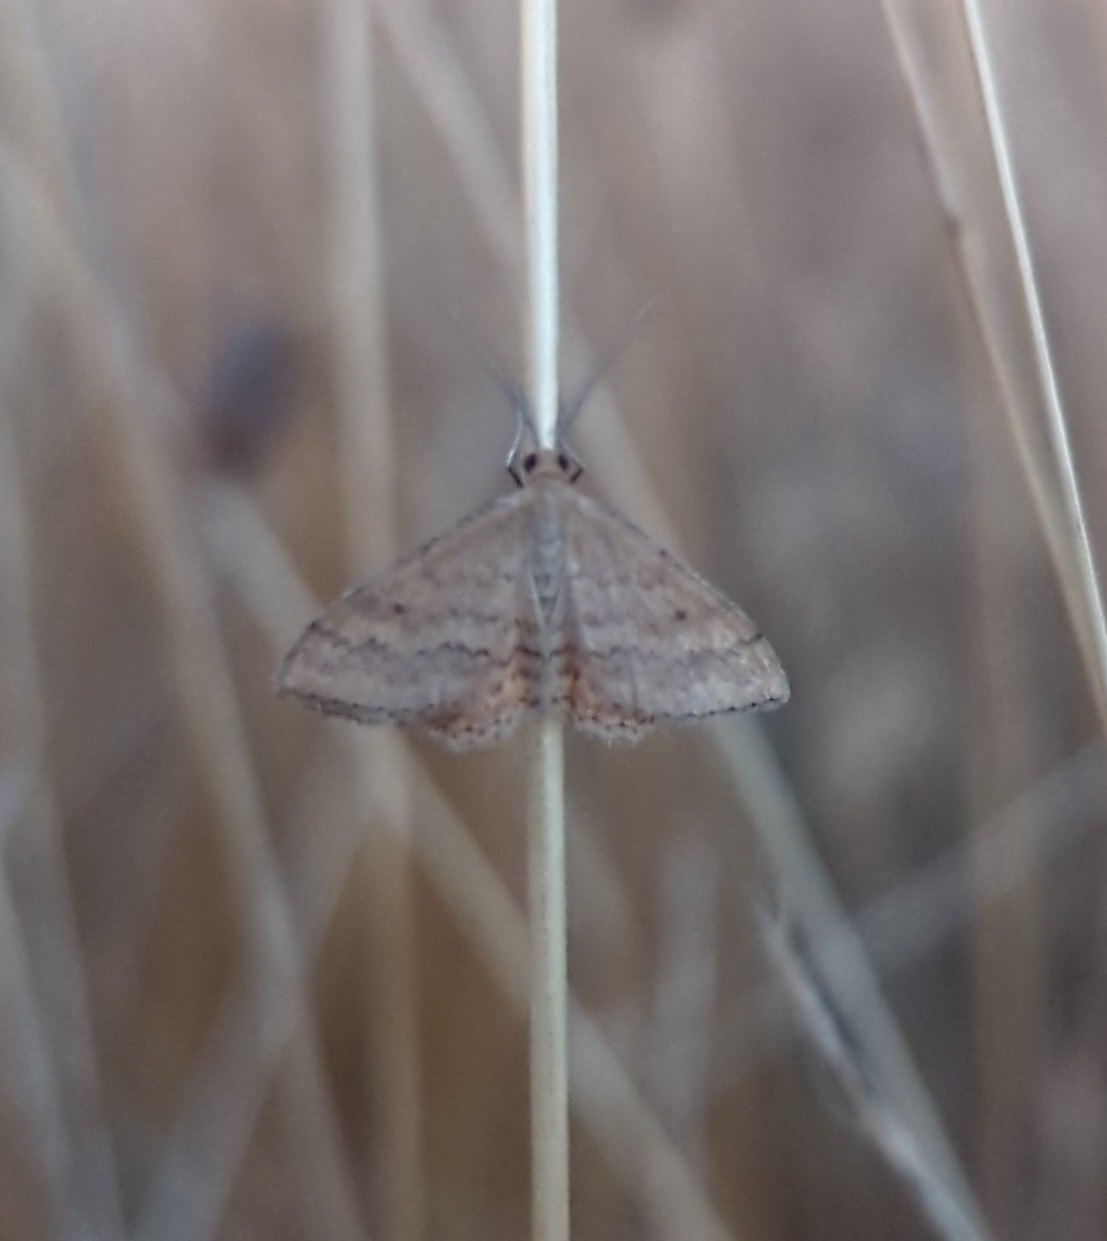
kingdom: Animalia
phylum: Arthropoda
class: Insecta
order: Lepidoptera
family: Geometridae
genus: Scopula
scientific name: Scopula rubraria
